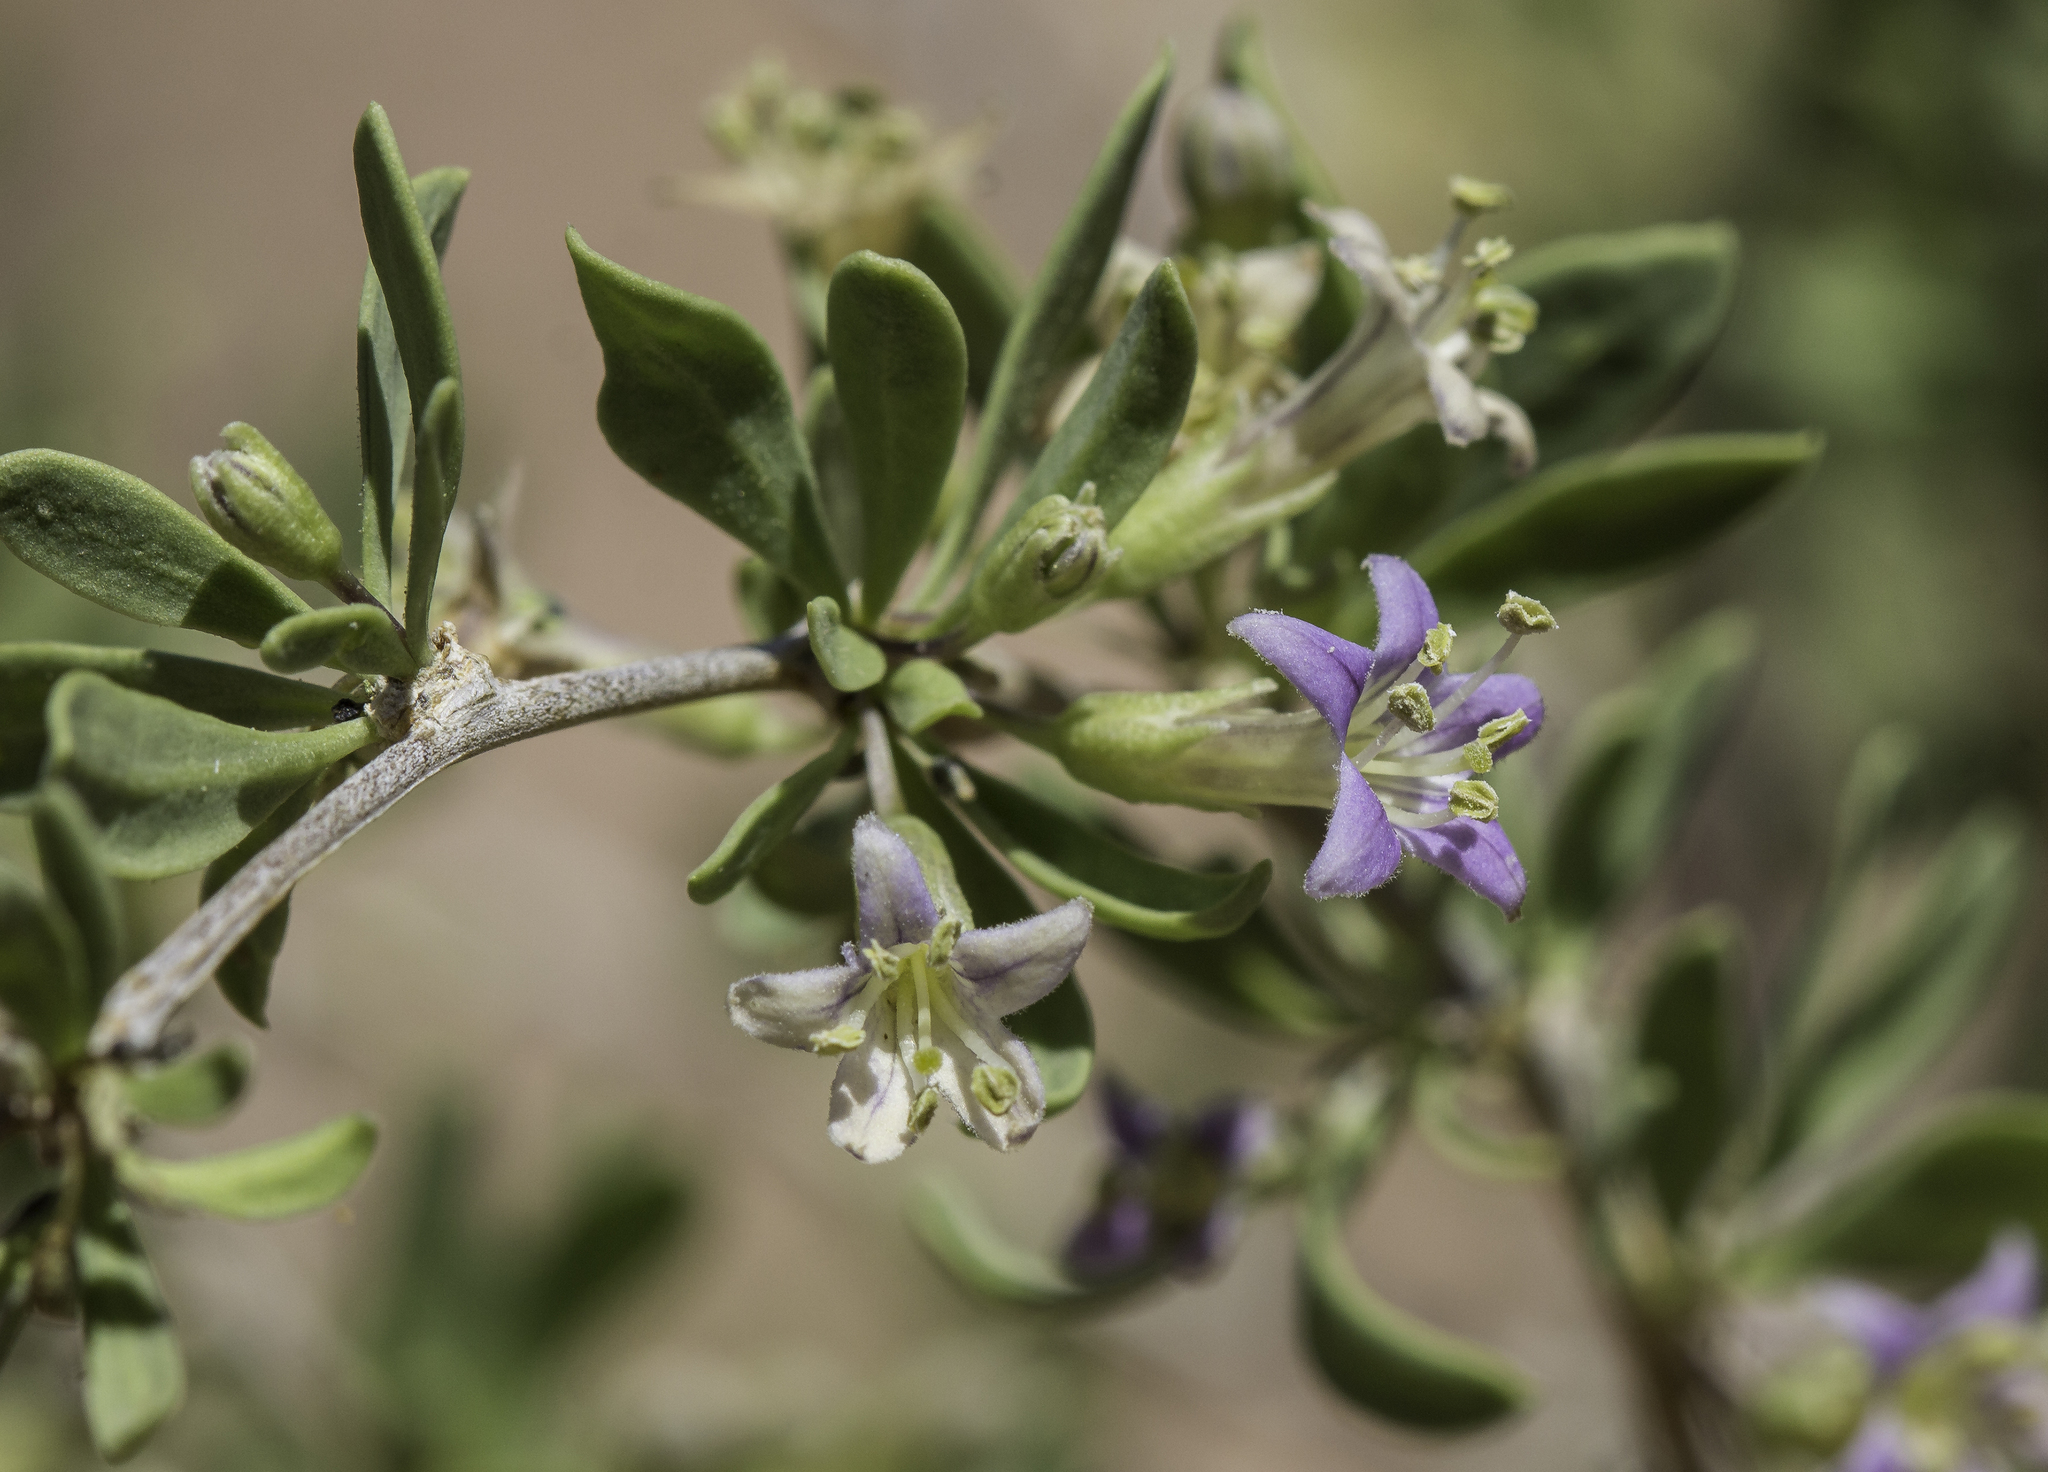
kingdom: Plantae
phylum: Tracheophyta
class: Magnoliopsida
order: Solanales
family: Solanaceae
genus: Lycium
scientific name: Lycium torreyi
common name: Torrey's lycium
